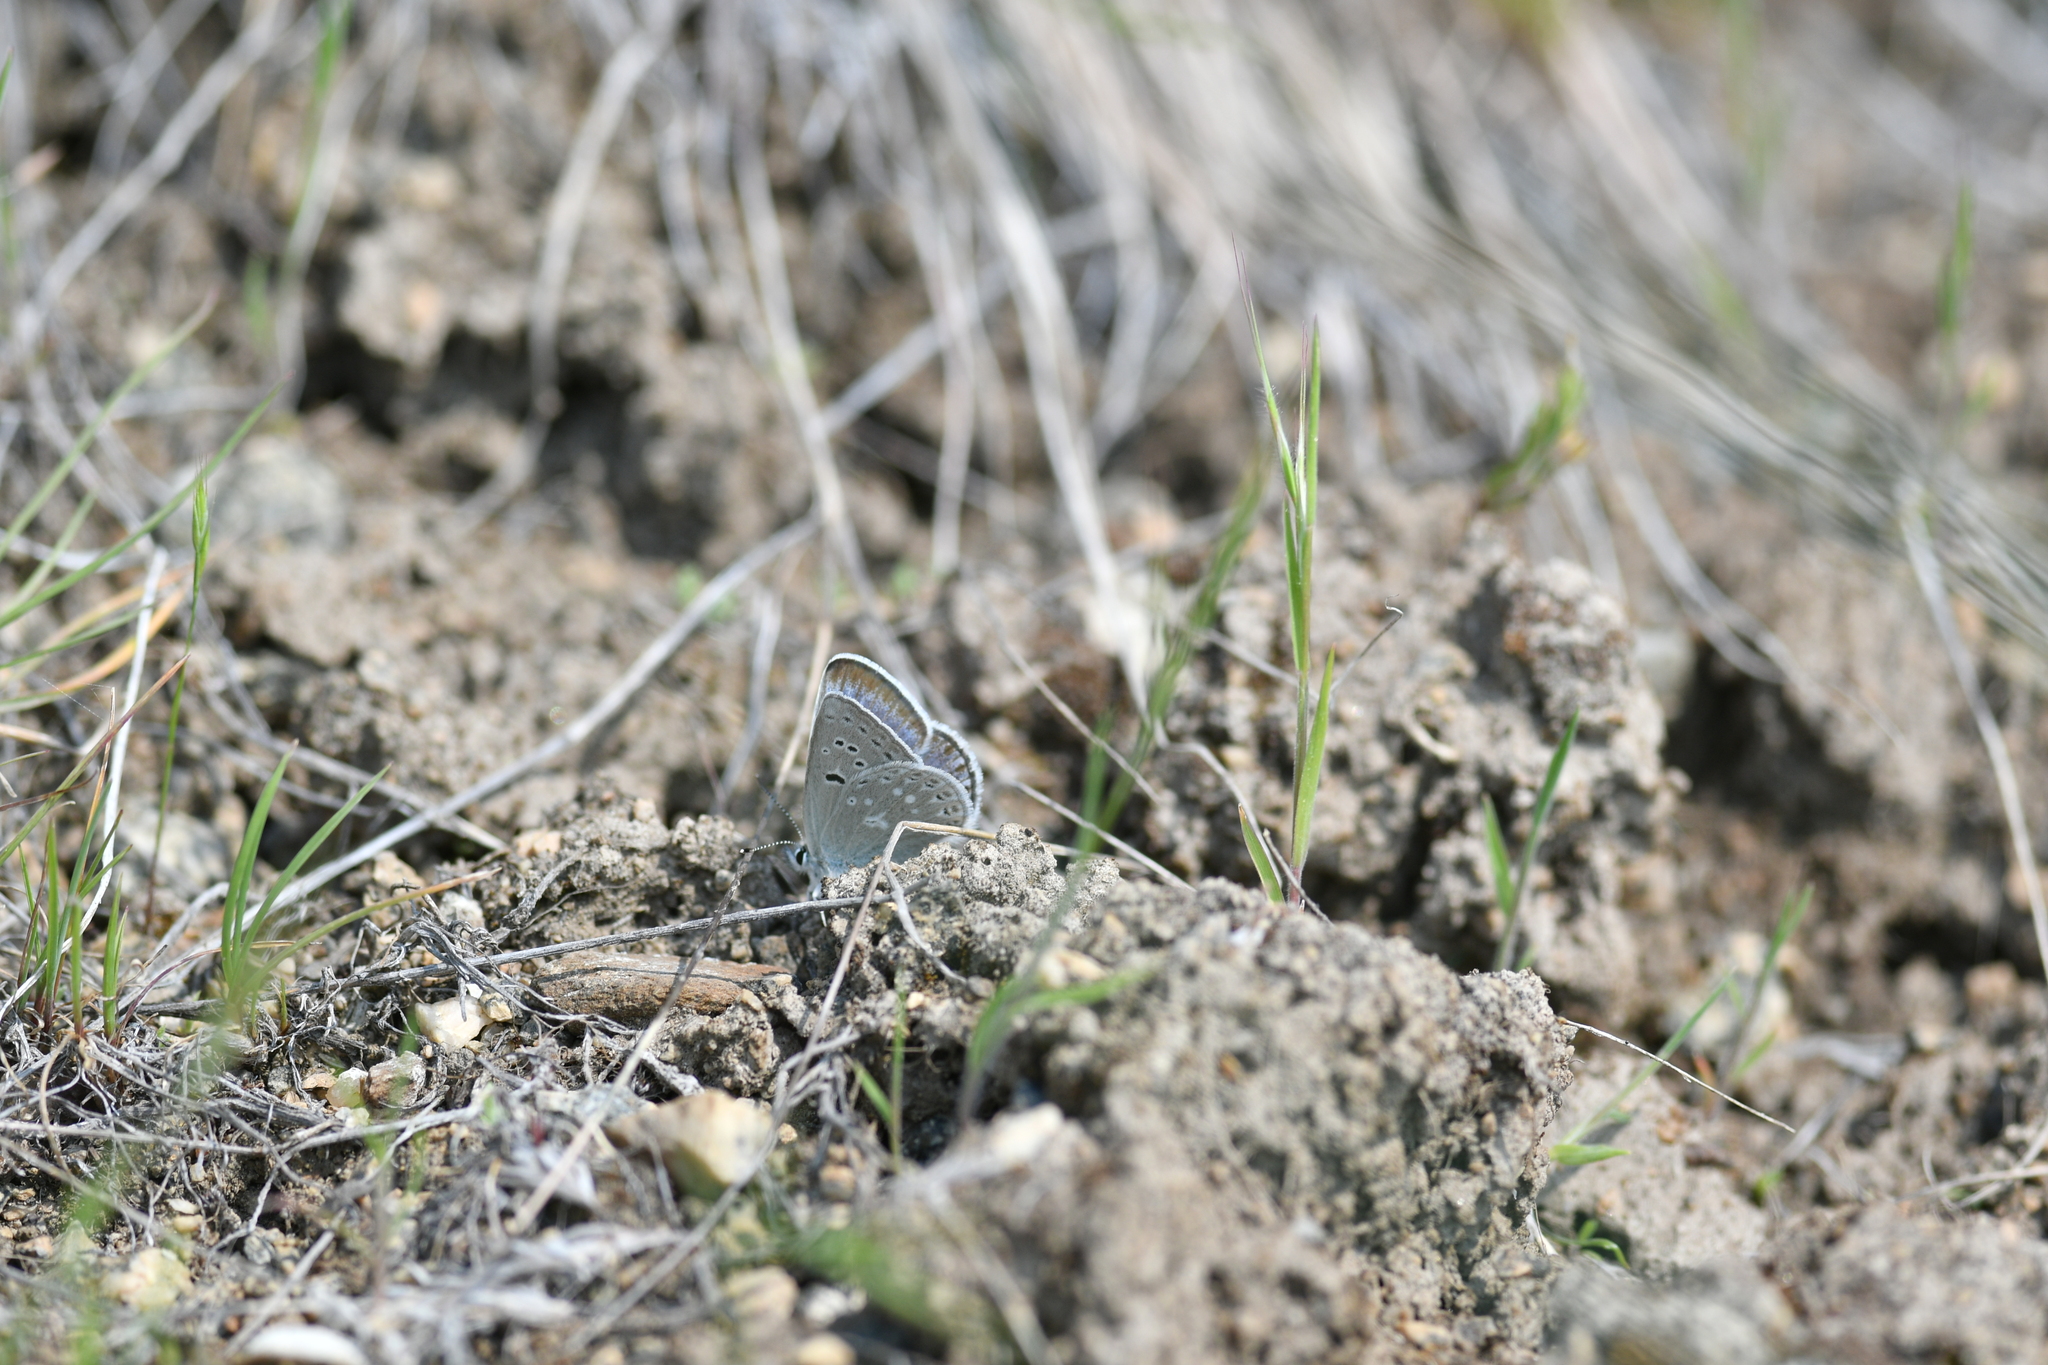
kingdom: Animalia
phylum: Arthropoda
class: Insecta
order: Lepidoptera
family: Lycaenidae
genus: Icaricia
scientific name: Icaricia icarioides
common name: Boisduval's blue
